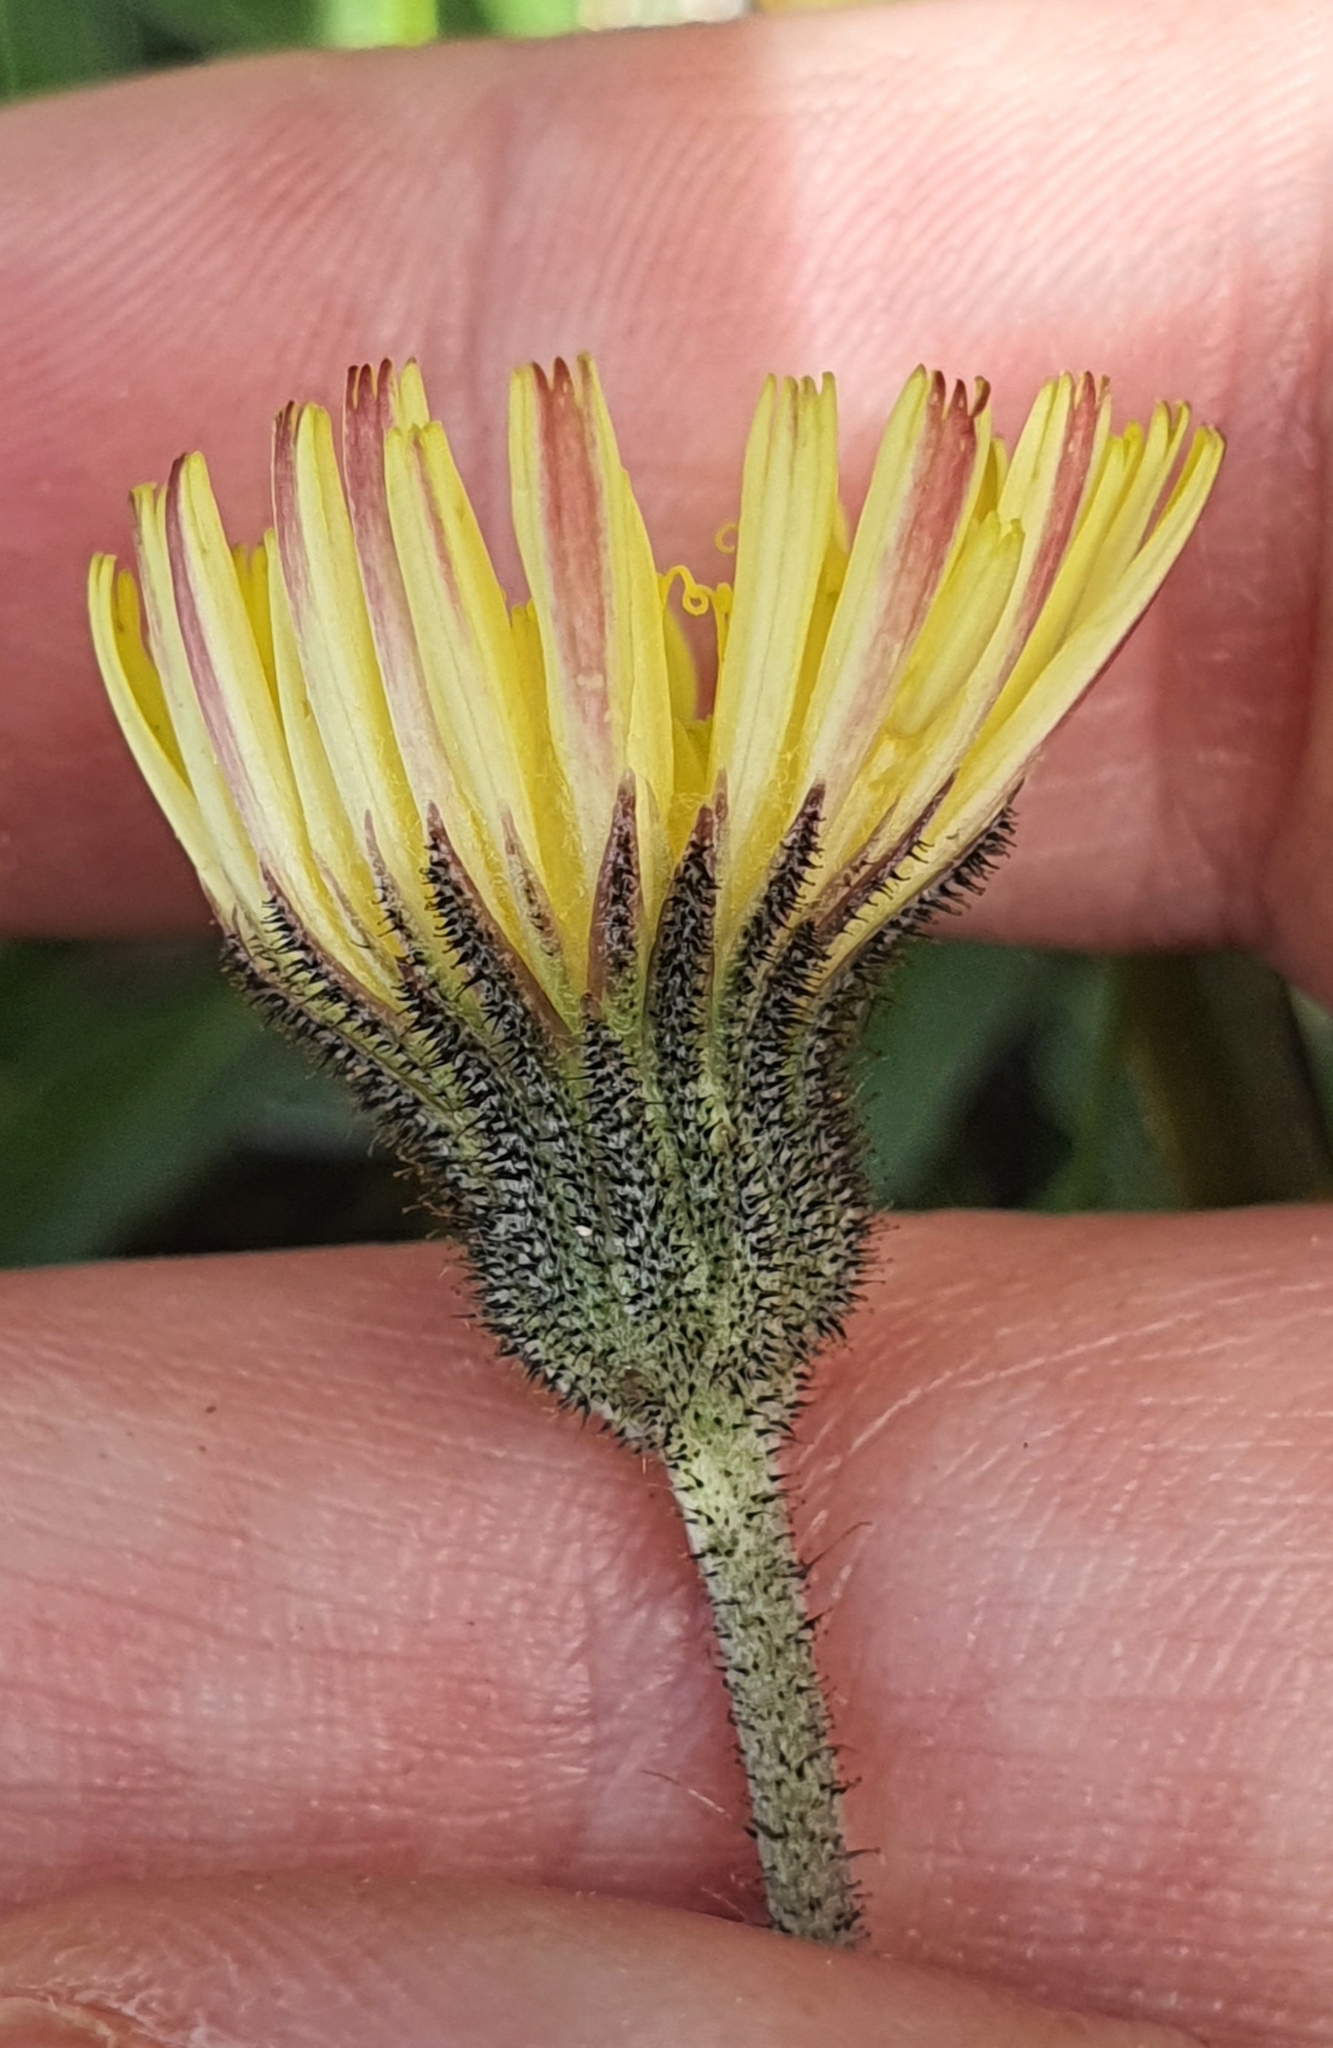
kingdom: Plantae
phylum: Tracheophyta
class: Magnoliopsida
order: Asterales
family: Asteraceae
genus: Pilosella
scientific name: Pilosella officinarum
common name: Mouse-ear hawkweed
